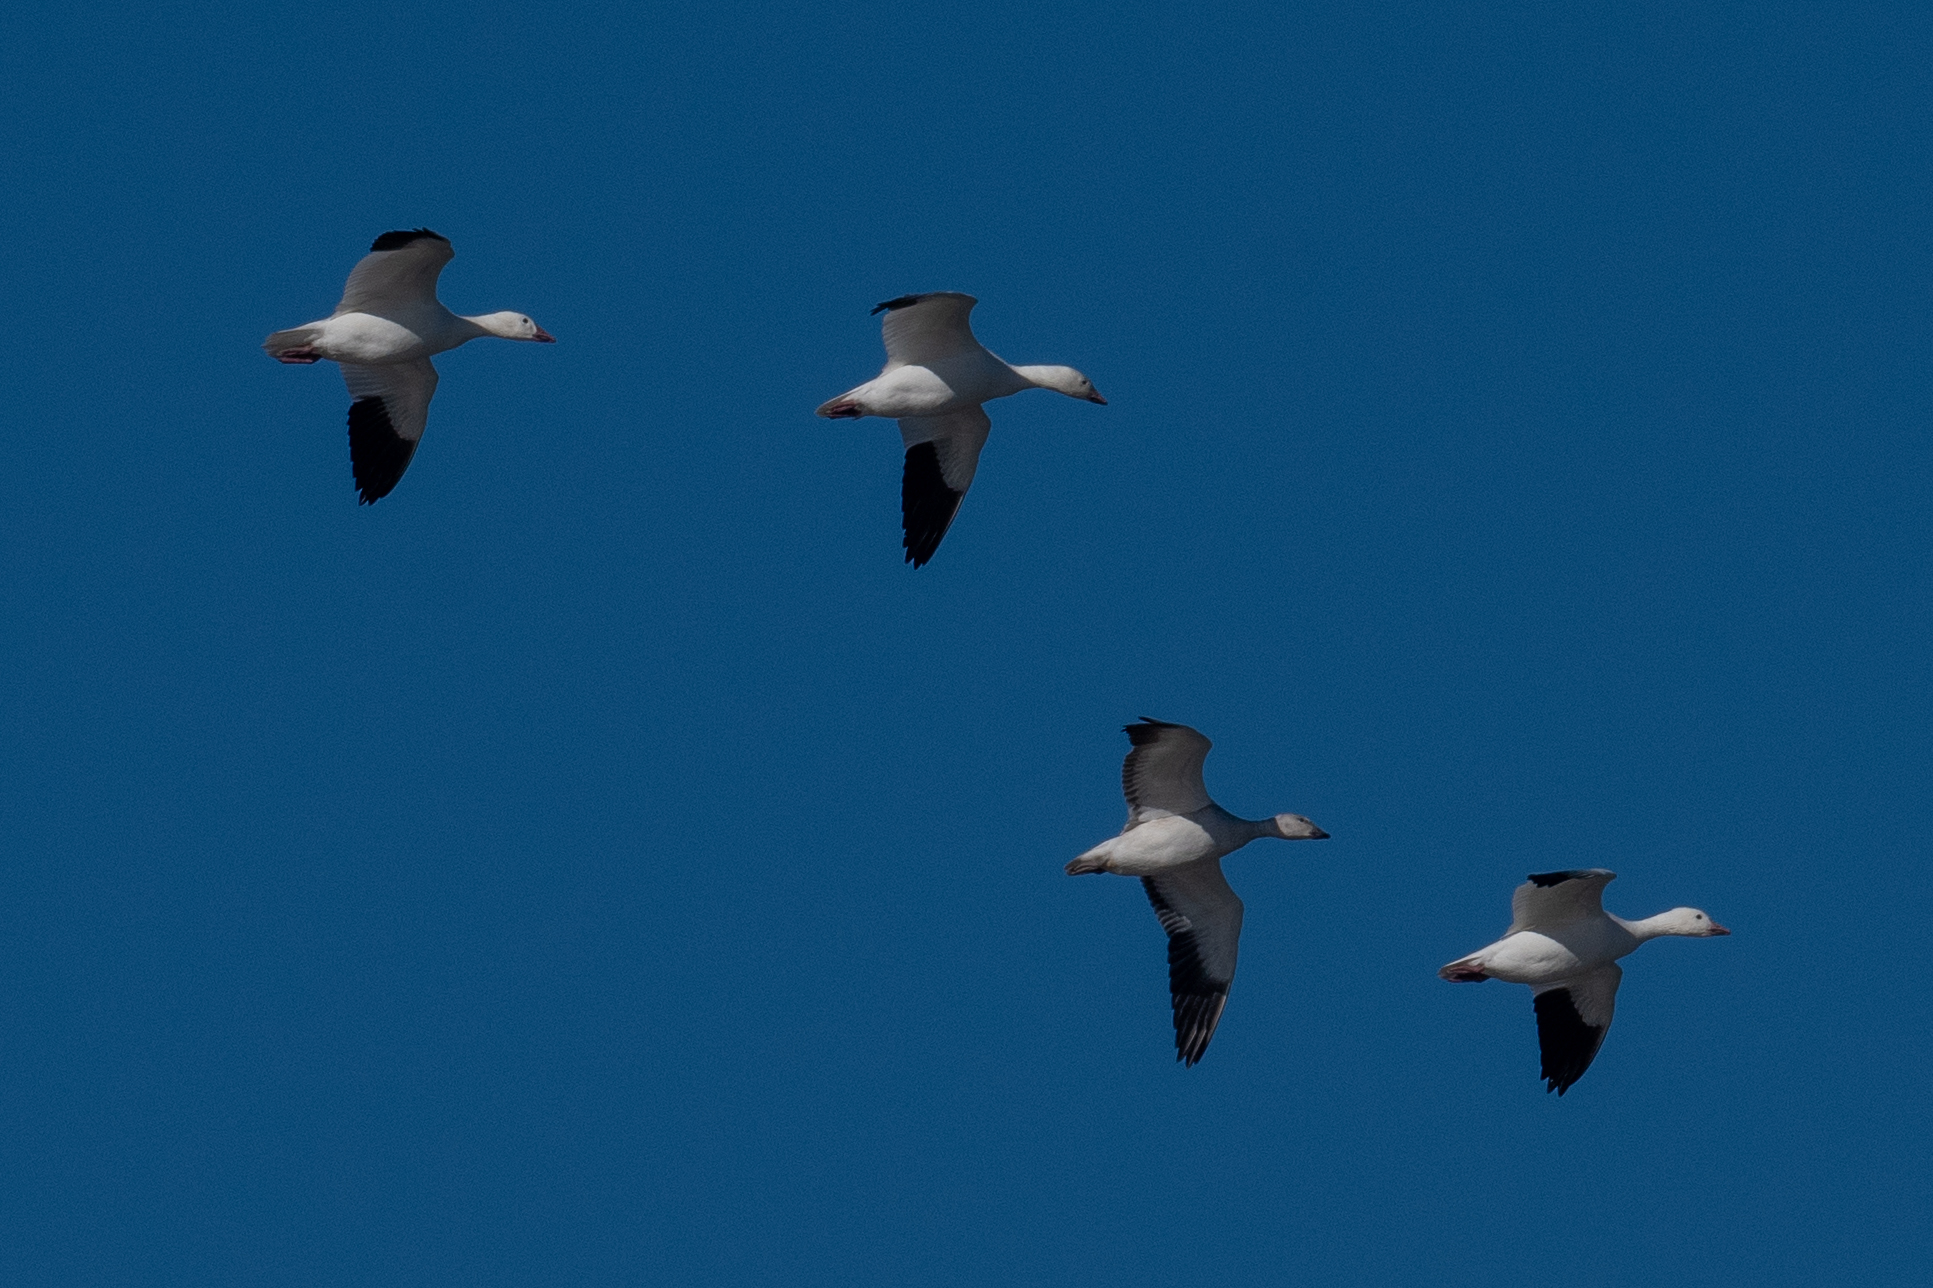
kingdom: Animalia
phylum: Chordata
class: Aves
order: Anseriformes
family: Anatidae
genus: Anser
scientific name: Anser caerulescens
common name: Snow goose
